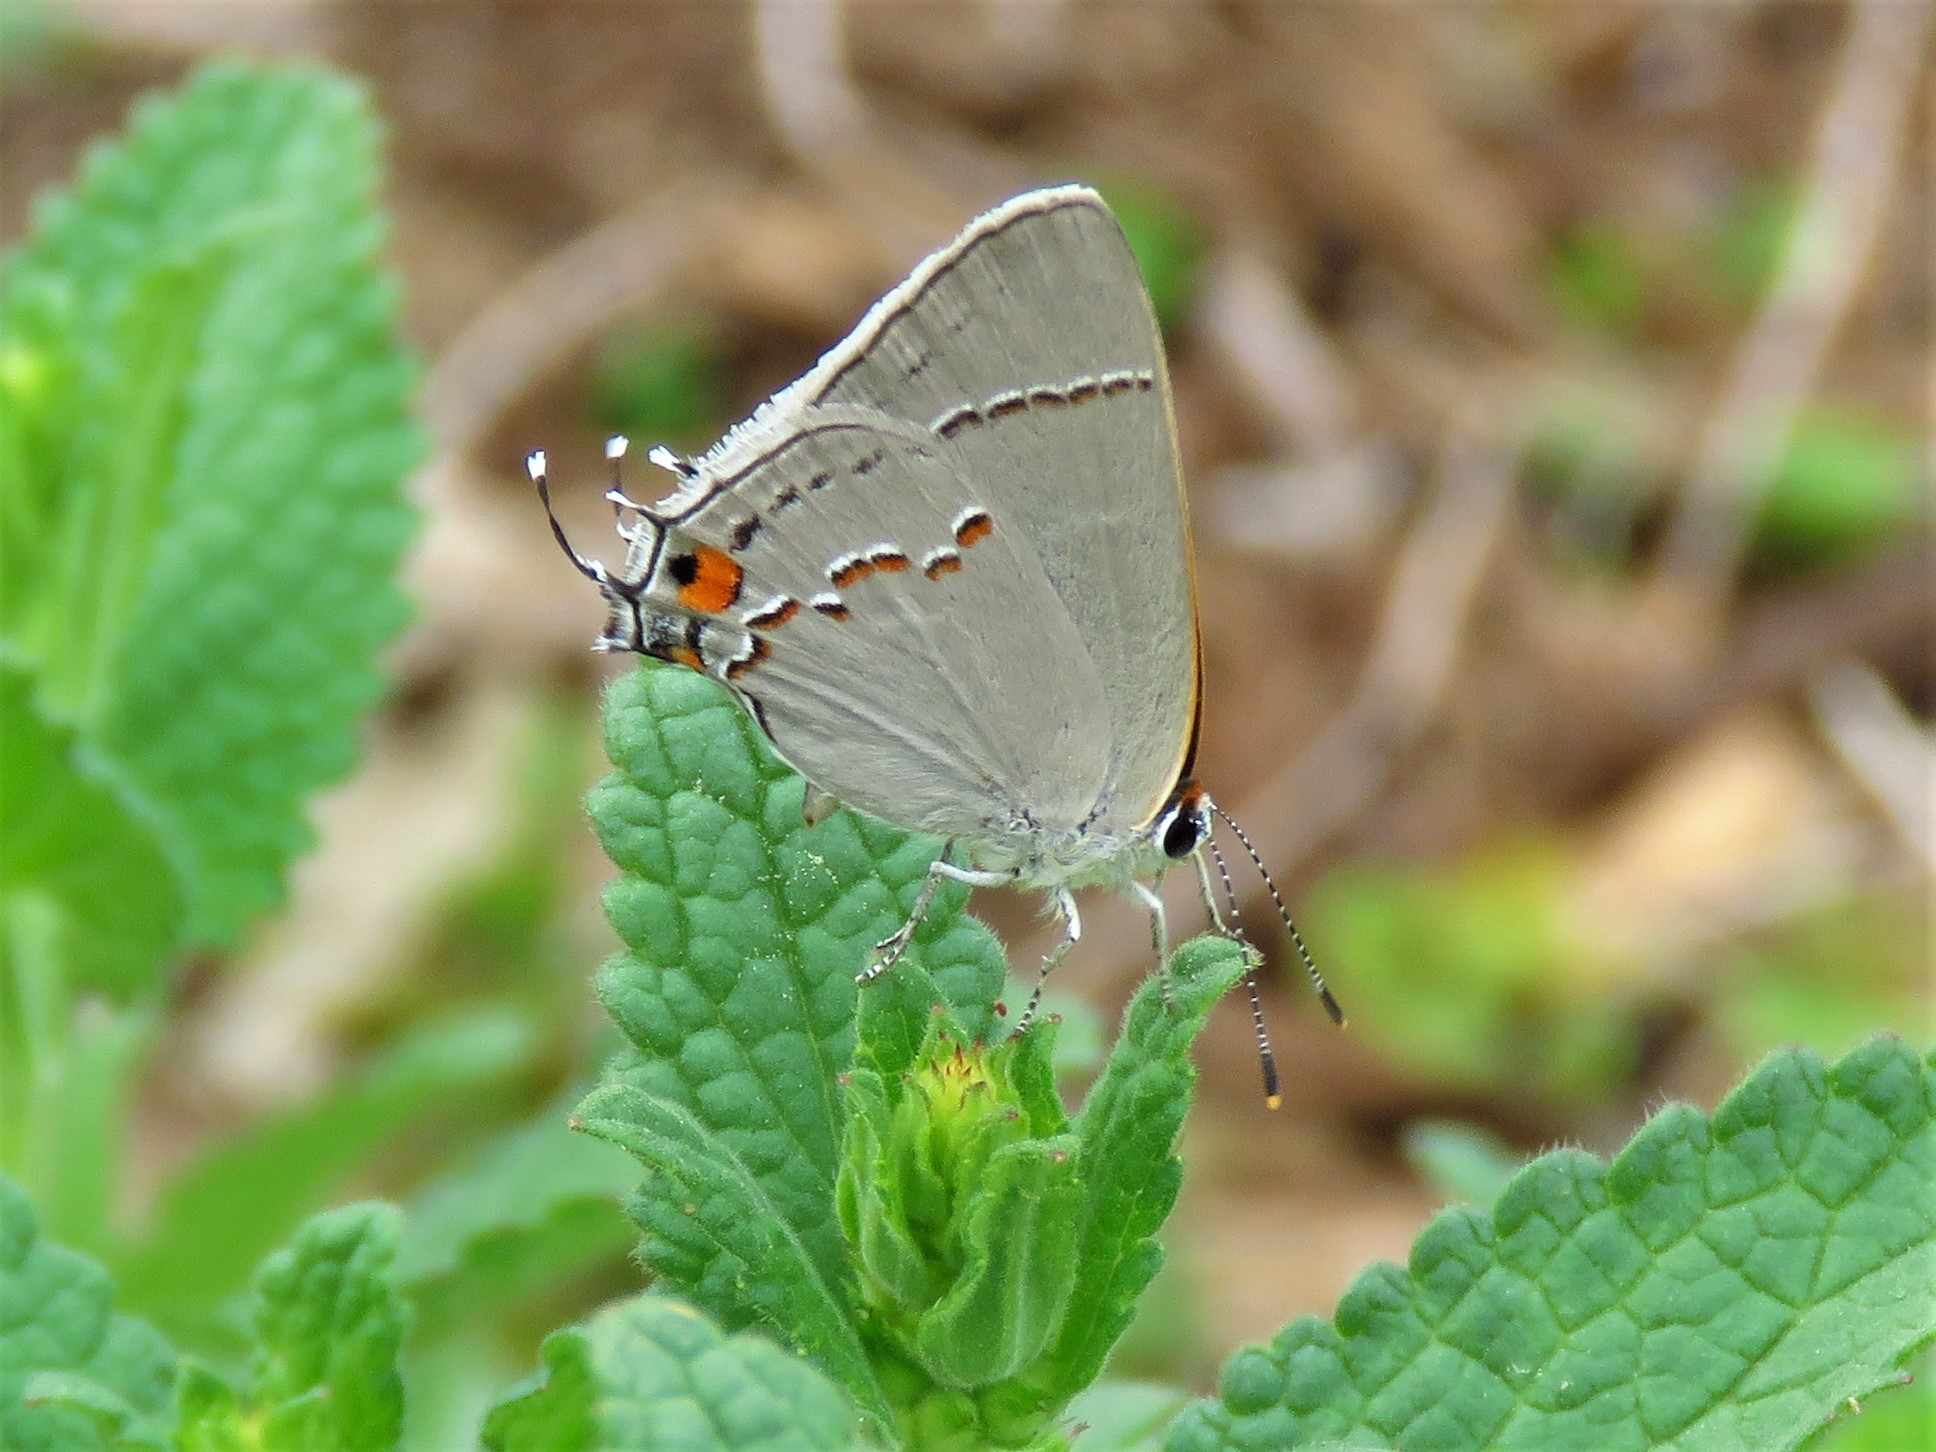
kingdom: Animalia
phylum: Arthropoda
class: Insecta
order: Lepidoptera
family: Lycaenidae
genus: Strymon
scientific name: Strymon melinus
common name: Gray hairstreak
